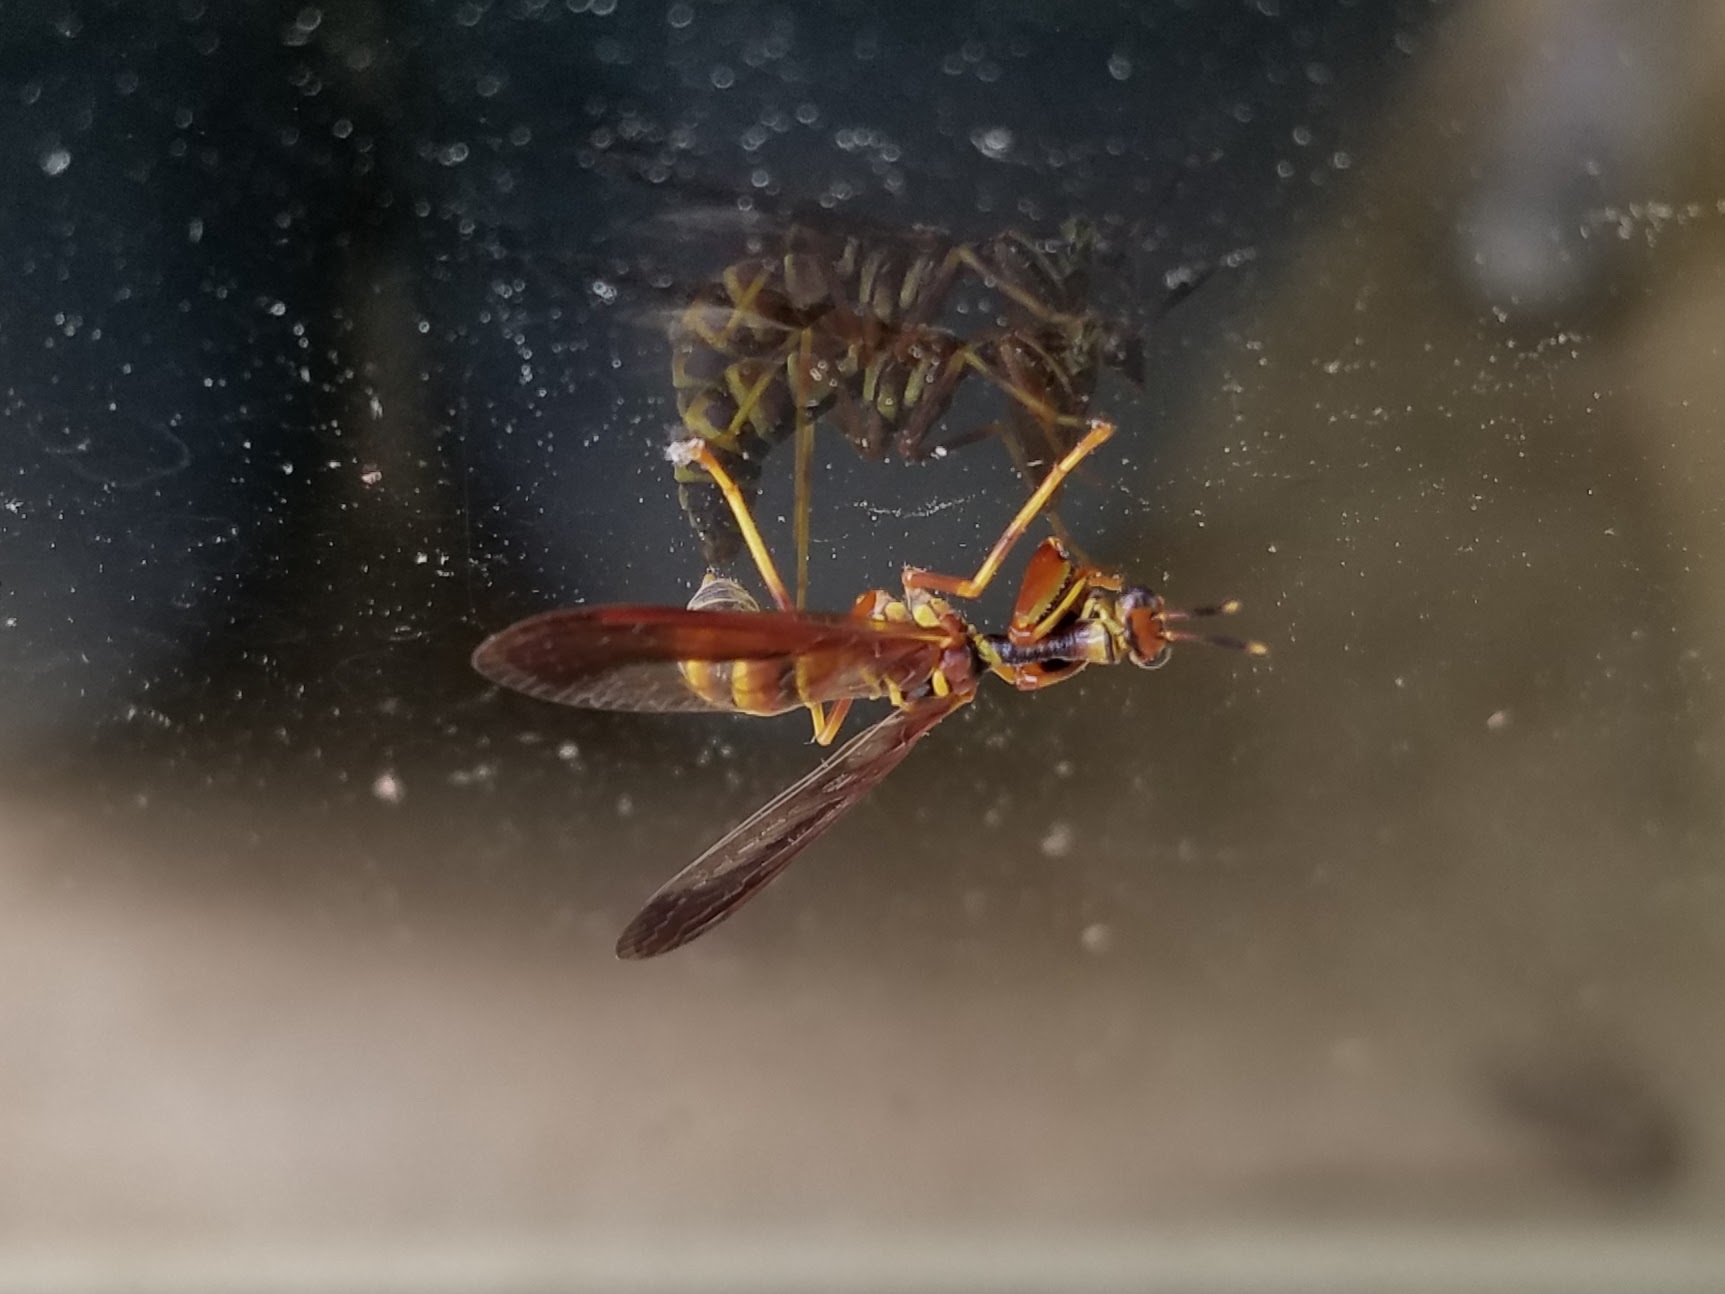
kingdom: Animalia
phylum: Arthropoda
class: Insecta
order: Neuroptera
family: Mantispidae
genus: Climaciella
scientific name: Climaciella brunnea
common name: Brown wasp mantidfly
